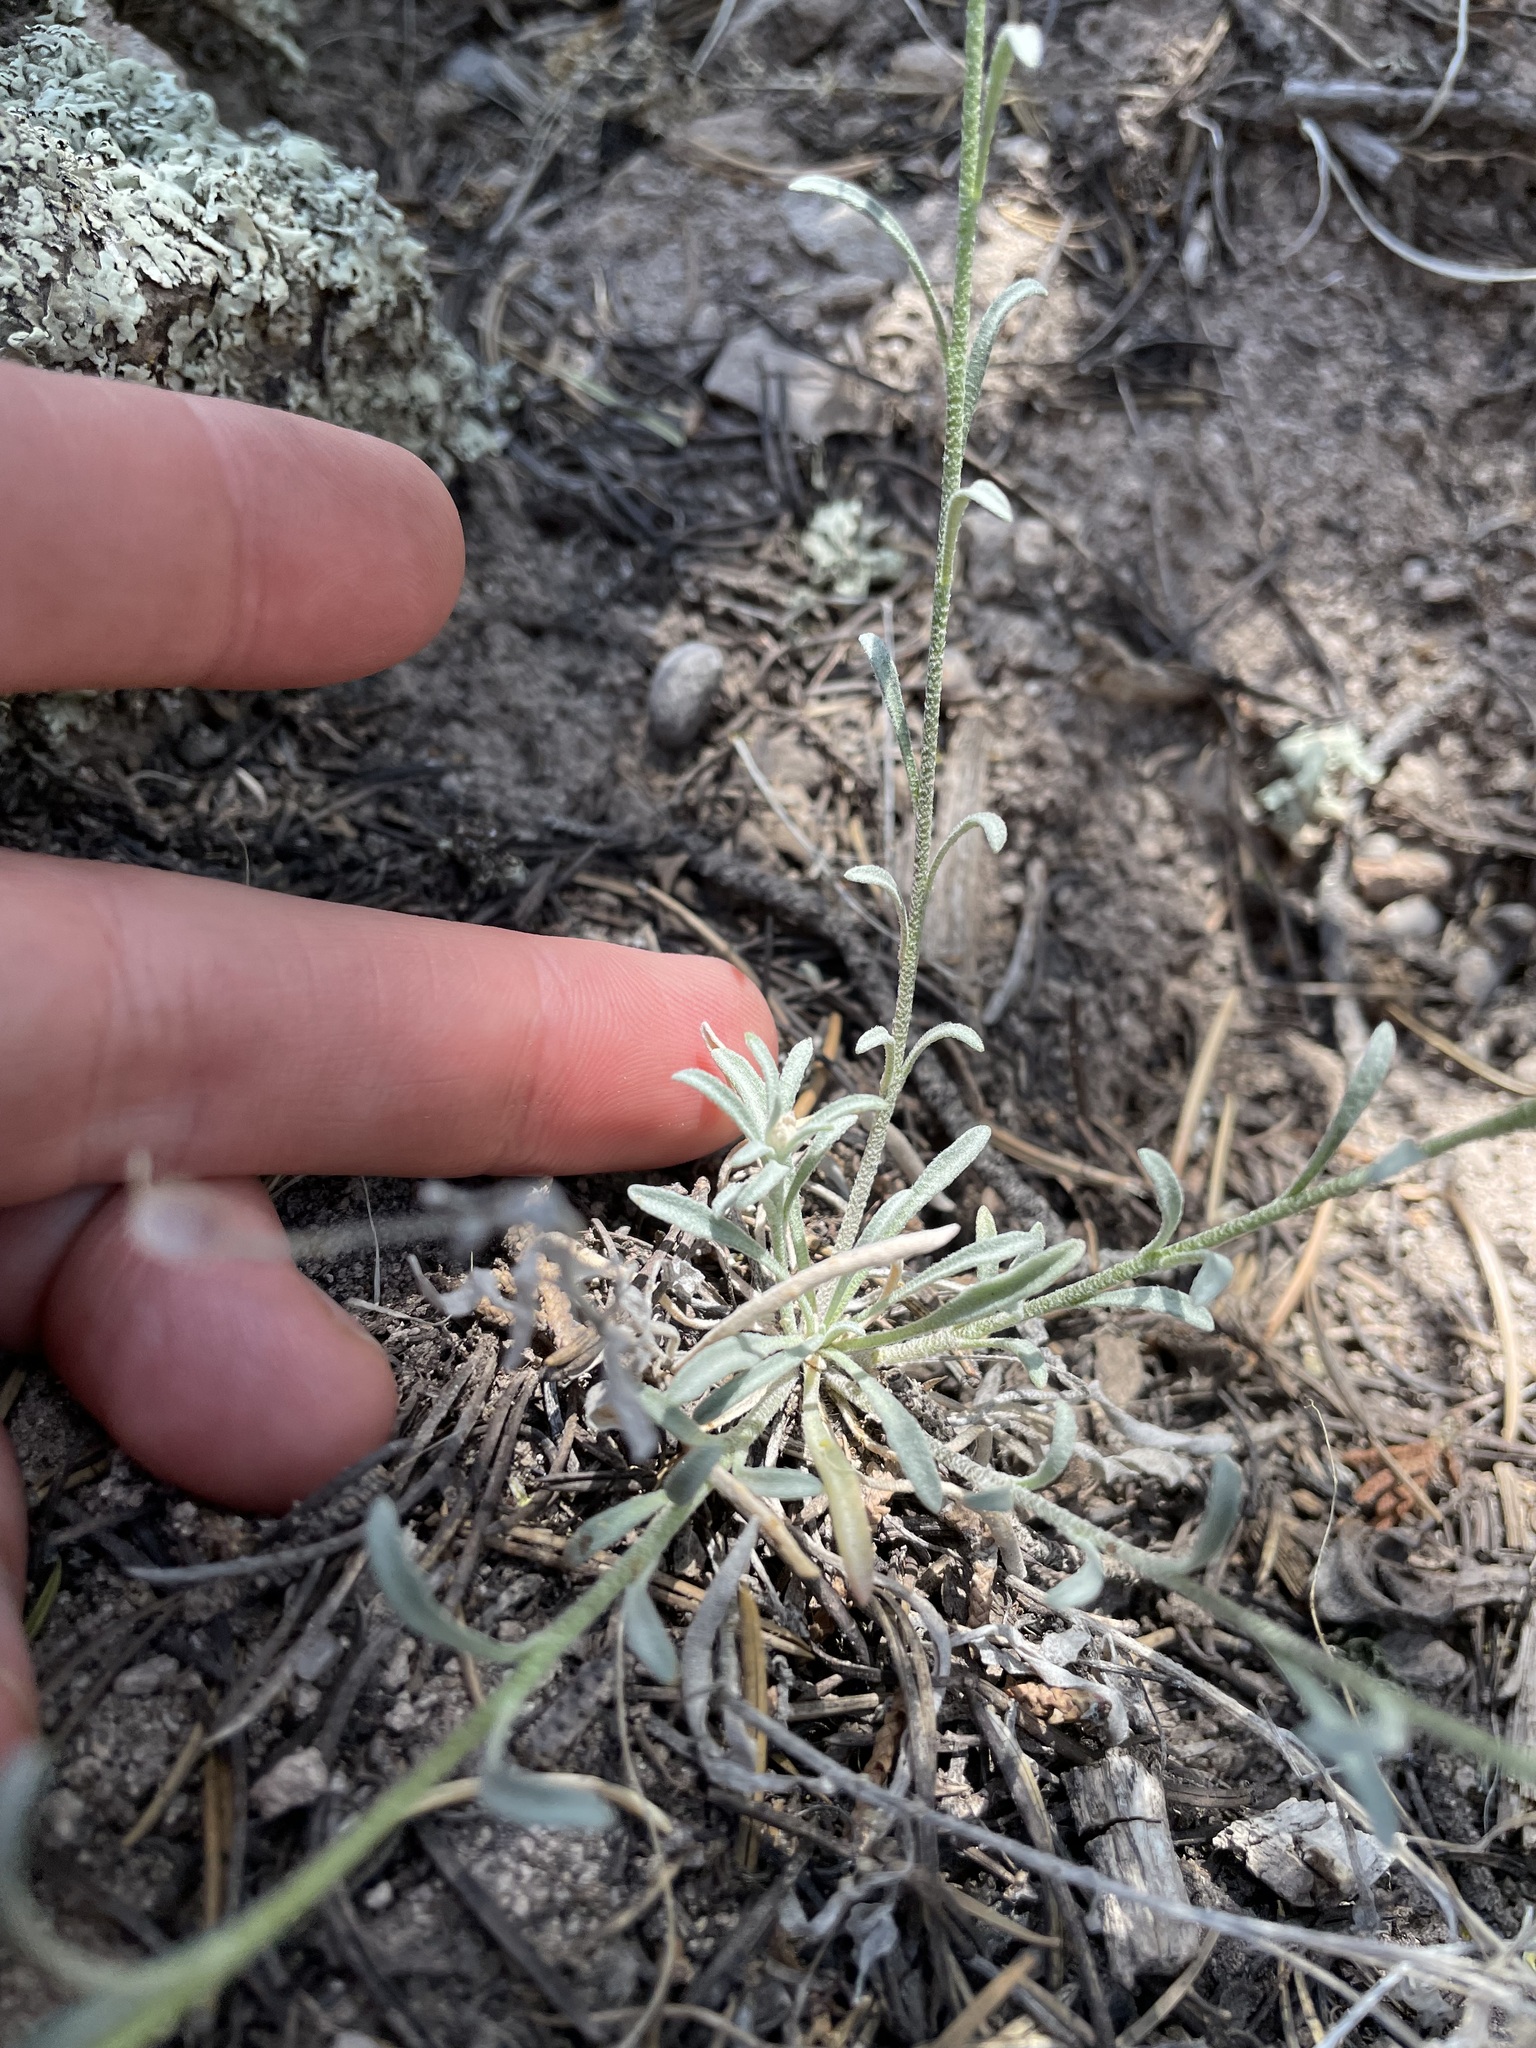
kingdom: Plantae
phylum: Tracheophyta
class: Magnoliopsida
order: Brassicales
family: Brassicaceae
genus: Physaria
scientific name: Physaria rectipes
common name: Colorado bladderpod
